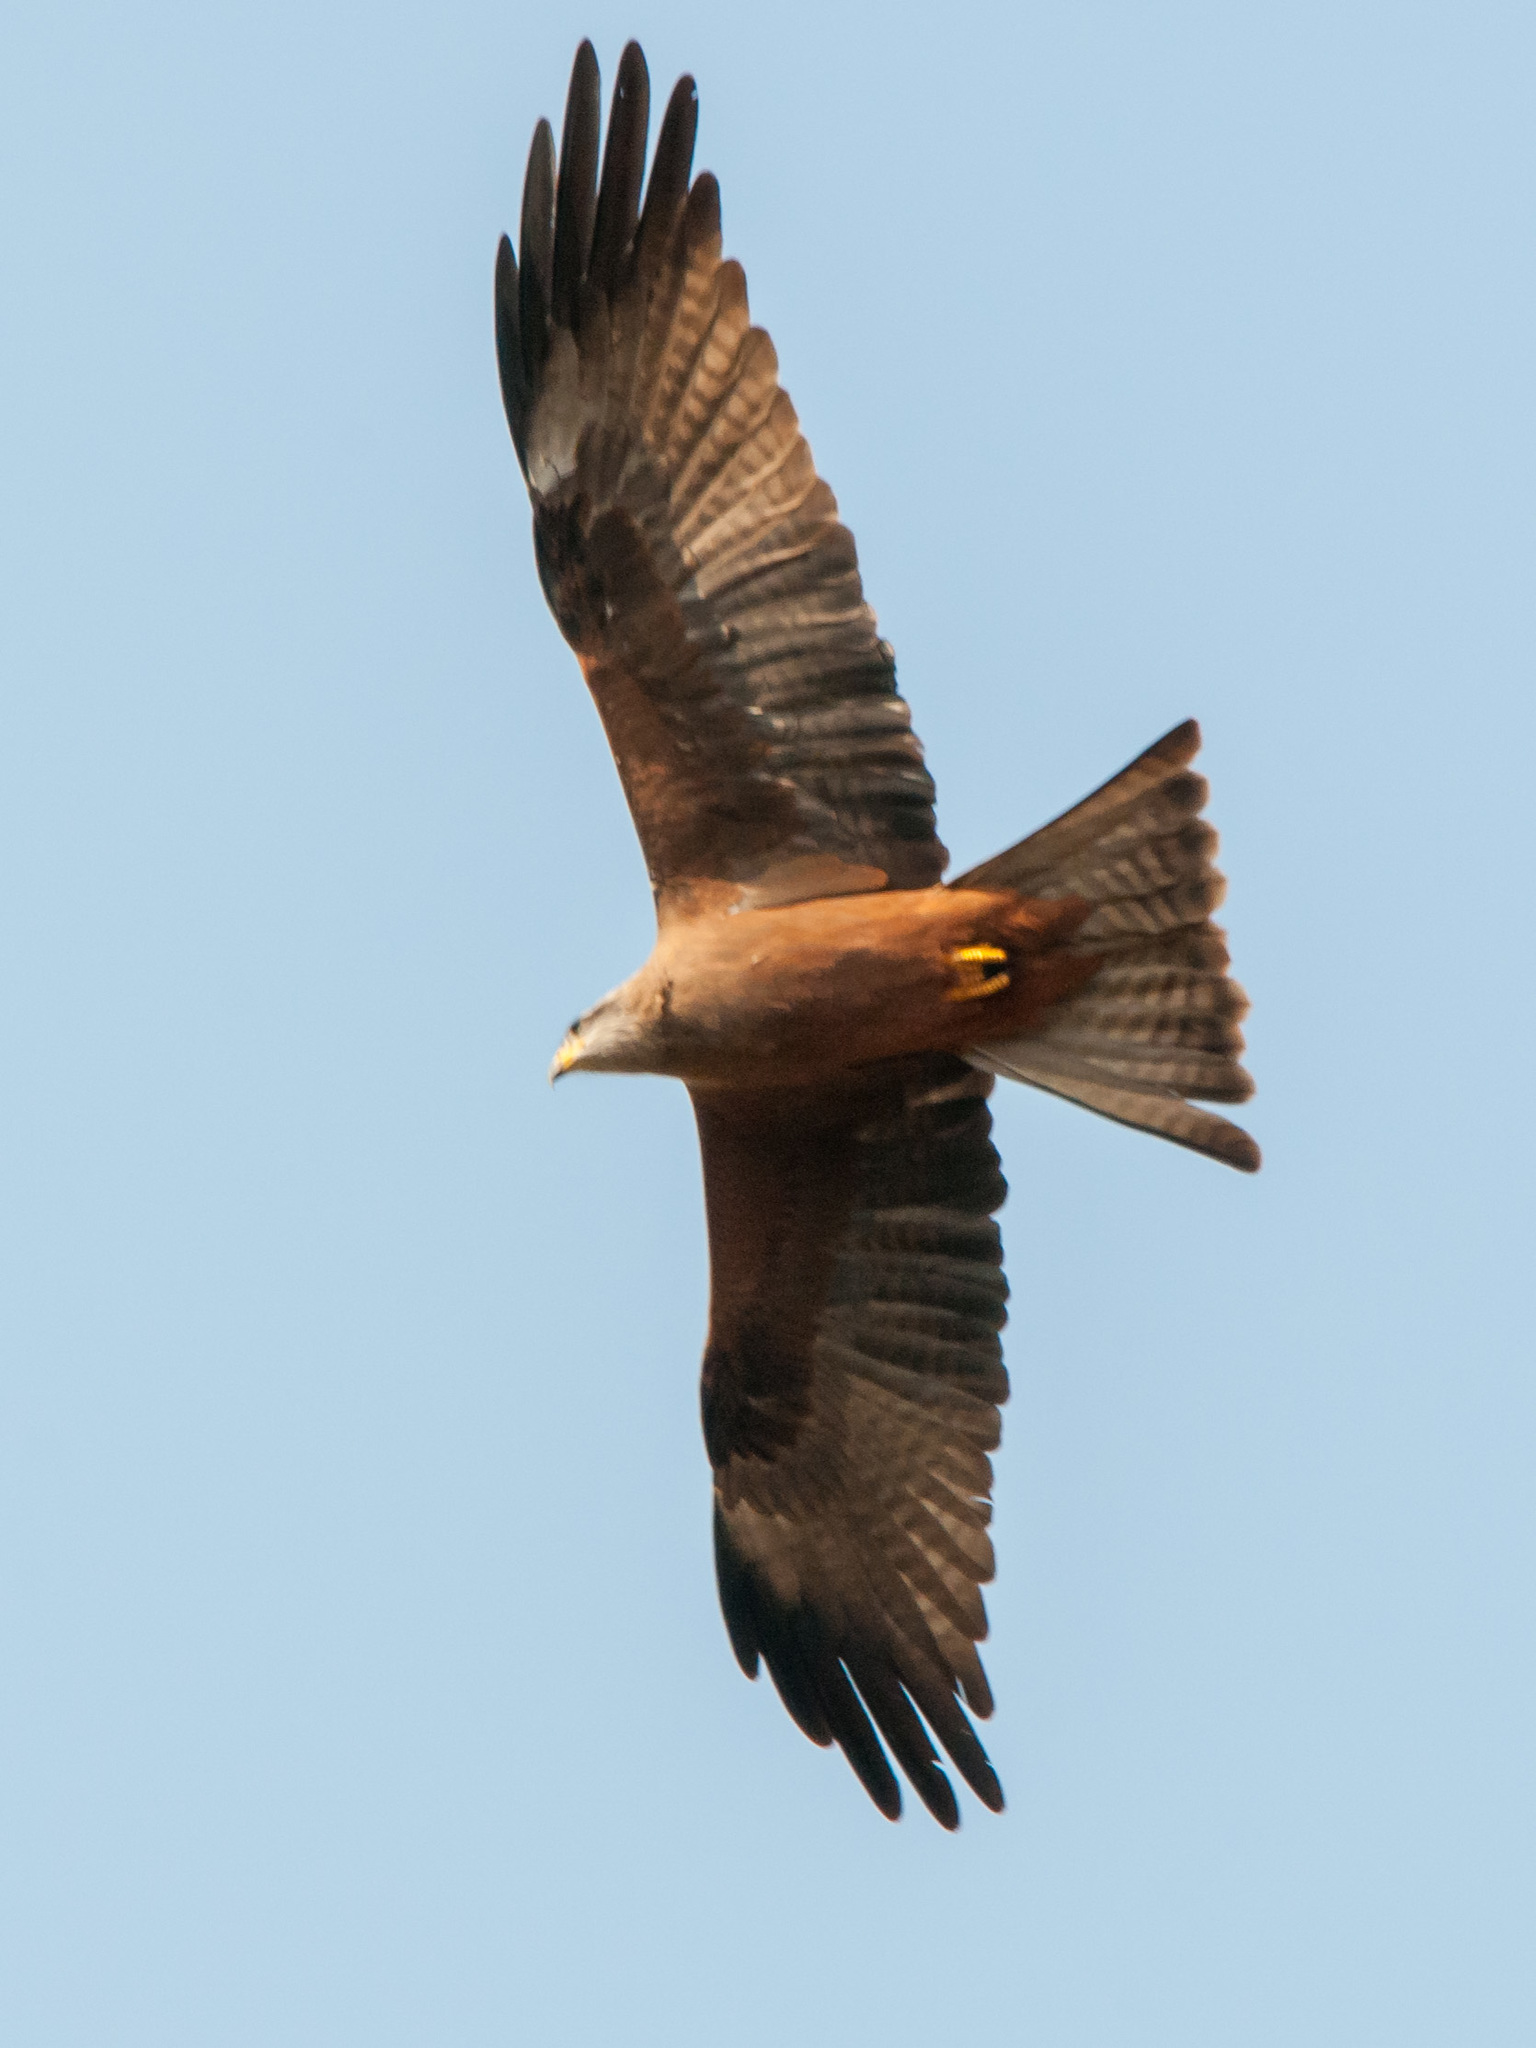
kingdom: Animalia
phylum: Chordata
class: Aves
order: Accipitriformes
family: Accipitridae
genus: Milvus
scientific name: Milvus migrans
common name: Black kite
